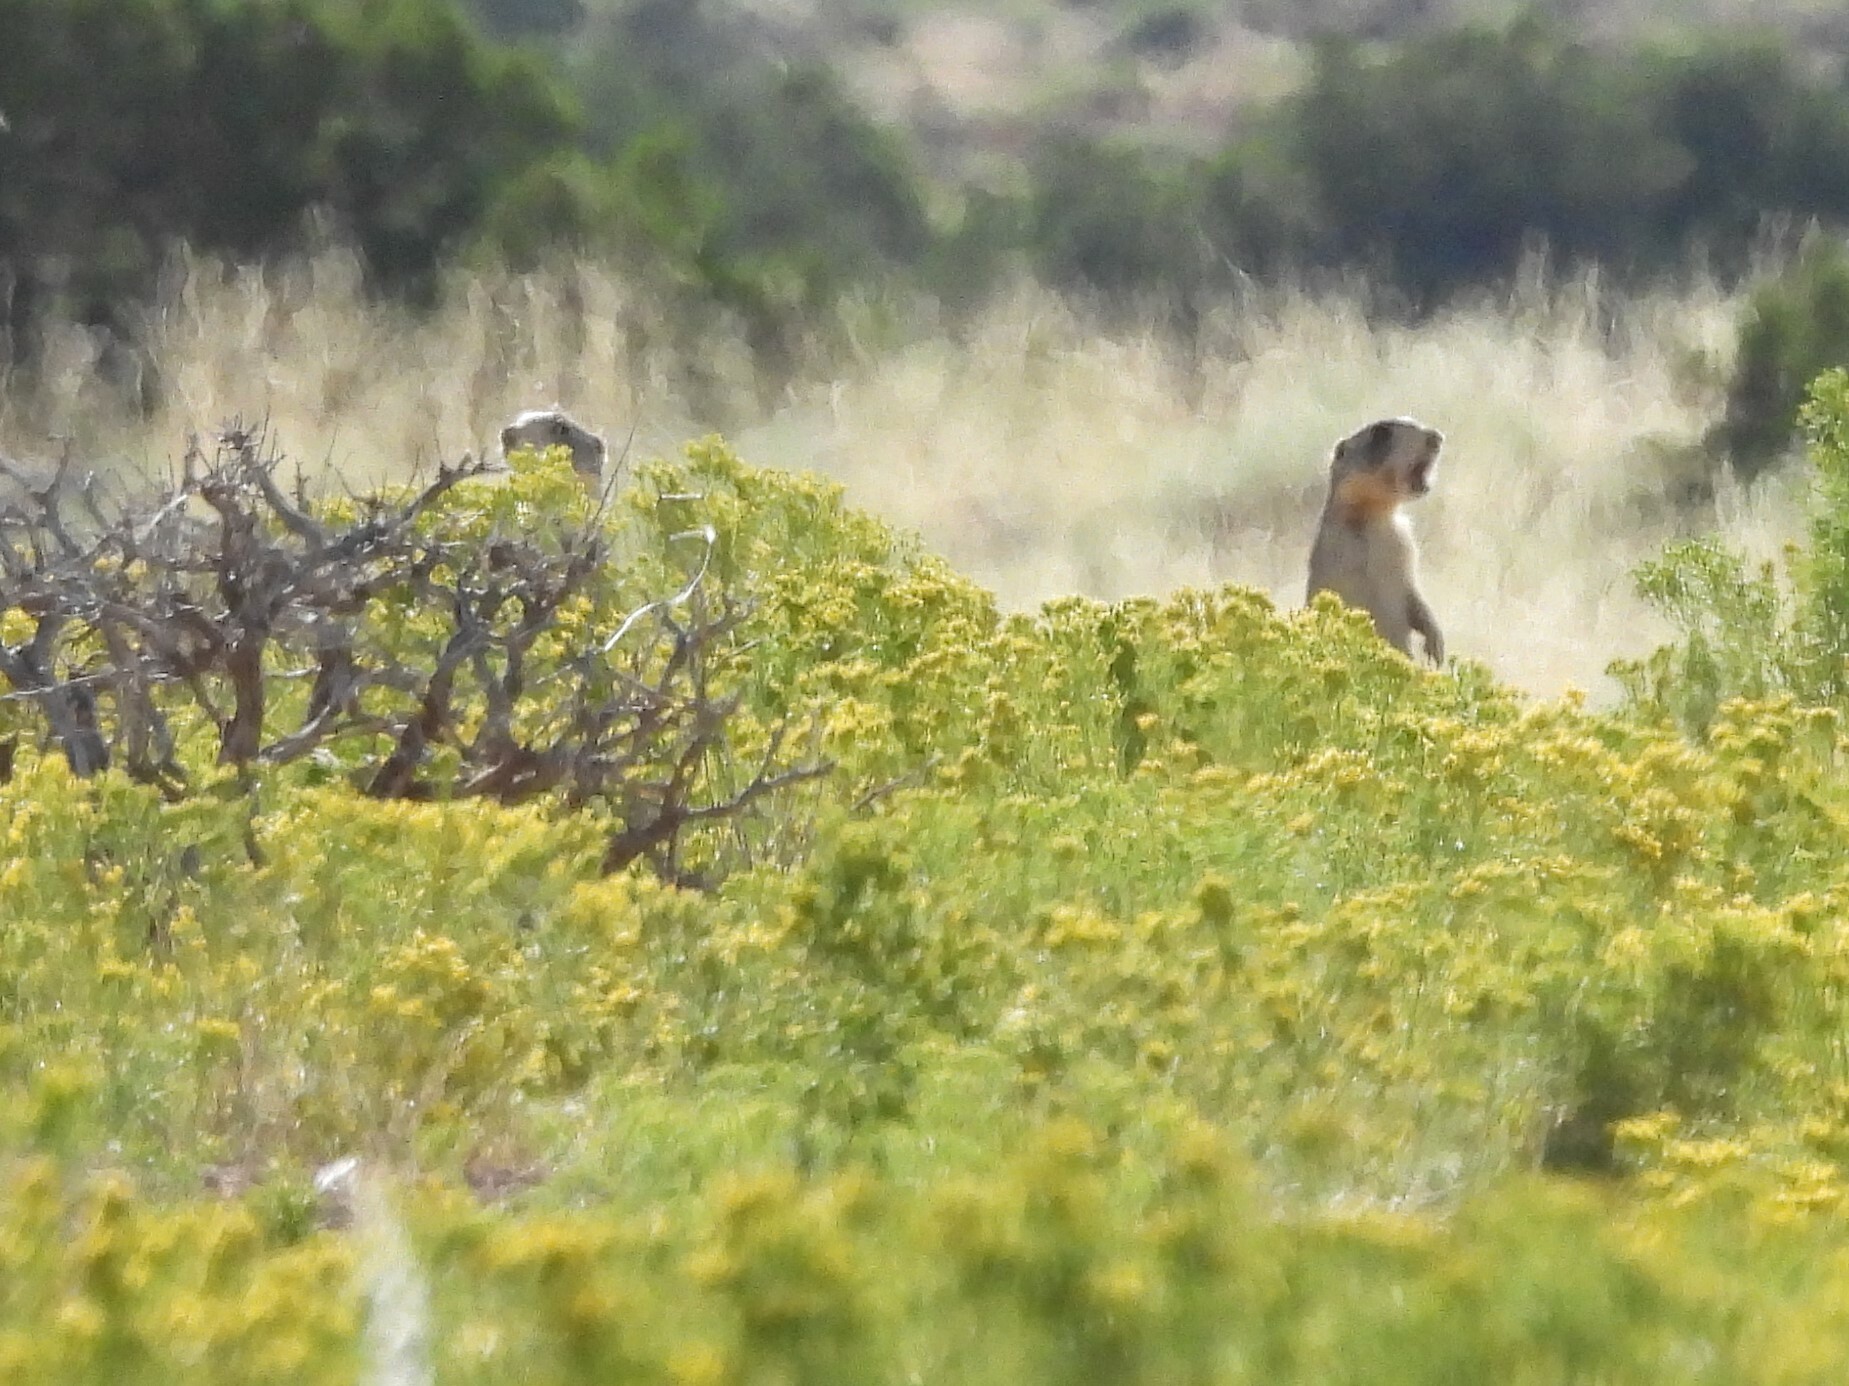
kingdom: Animalia
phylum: Chordata
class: Mammalia
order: Rodentia
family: Sciuridae
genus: Cynomys
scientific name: Cynomys leucurus
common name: White-tailed prairie dog
